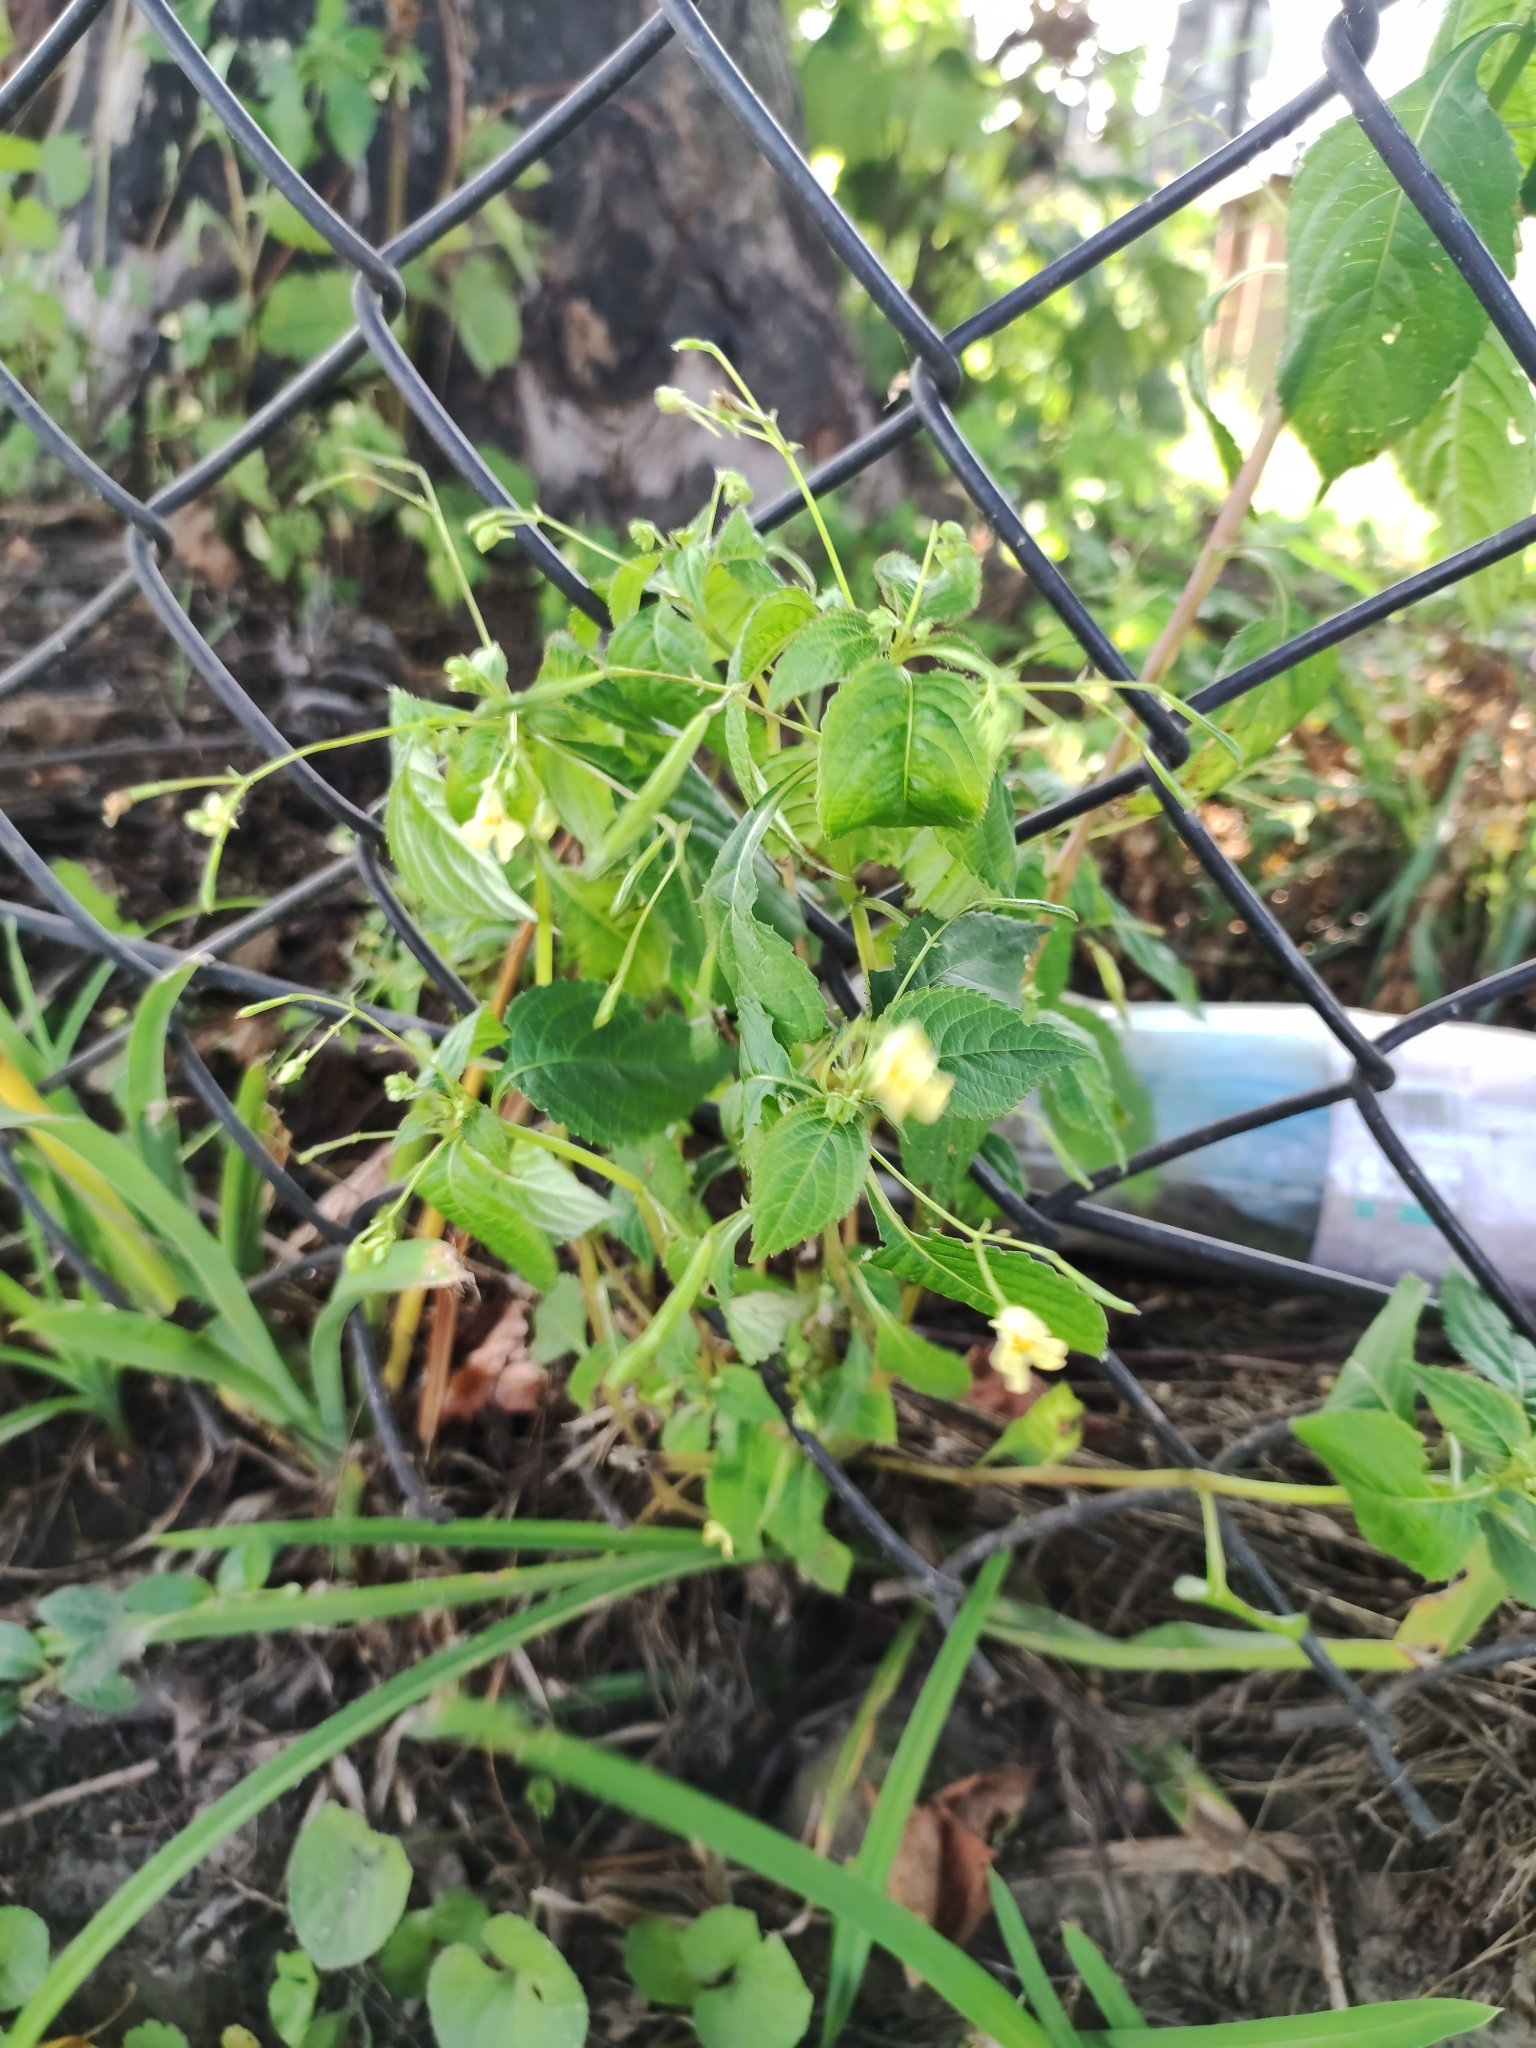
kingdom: Plantae
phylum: Tracheophyta
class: Magnoliopsida
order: Ericales
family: Balsaminaceae
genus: Impatiens
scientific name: Impatiens parviflora
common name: Small balsam
